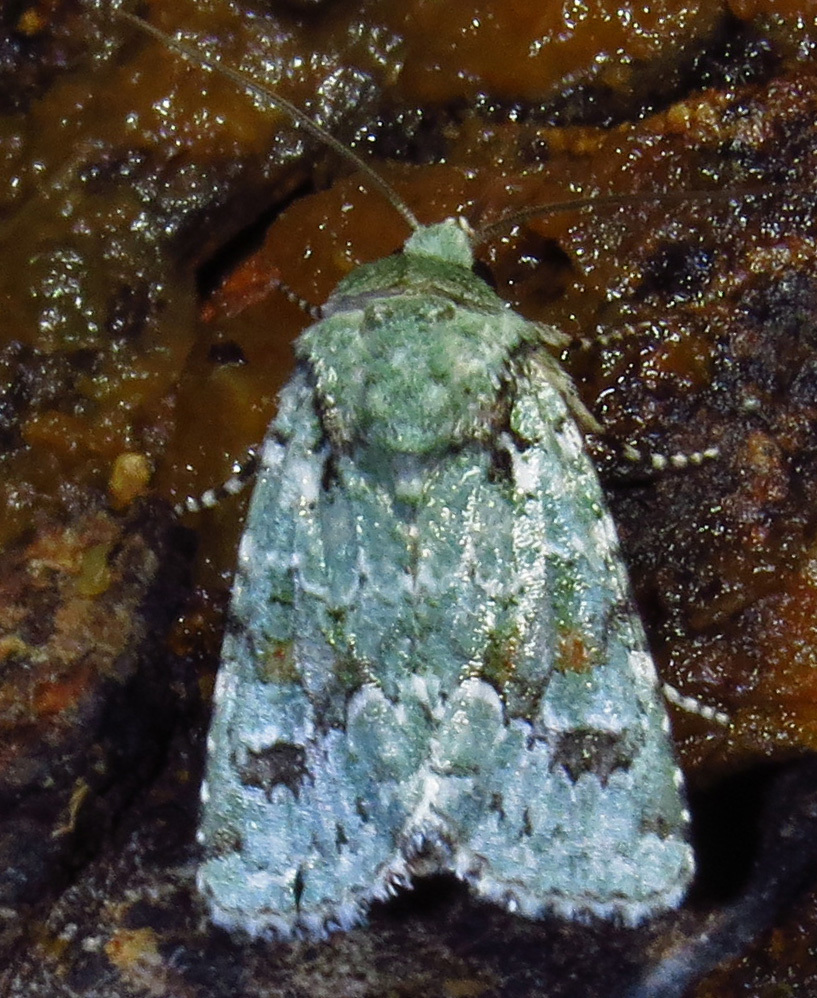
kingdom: Animalia
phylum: Arthropoda
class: Insecta
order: Lepidoptera
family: Noctuidae
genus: Lacinipolia
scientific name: Lacinipolia laudabilis
